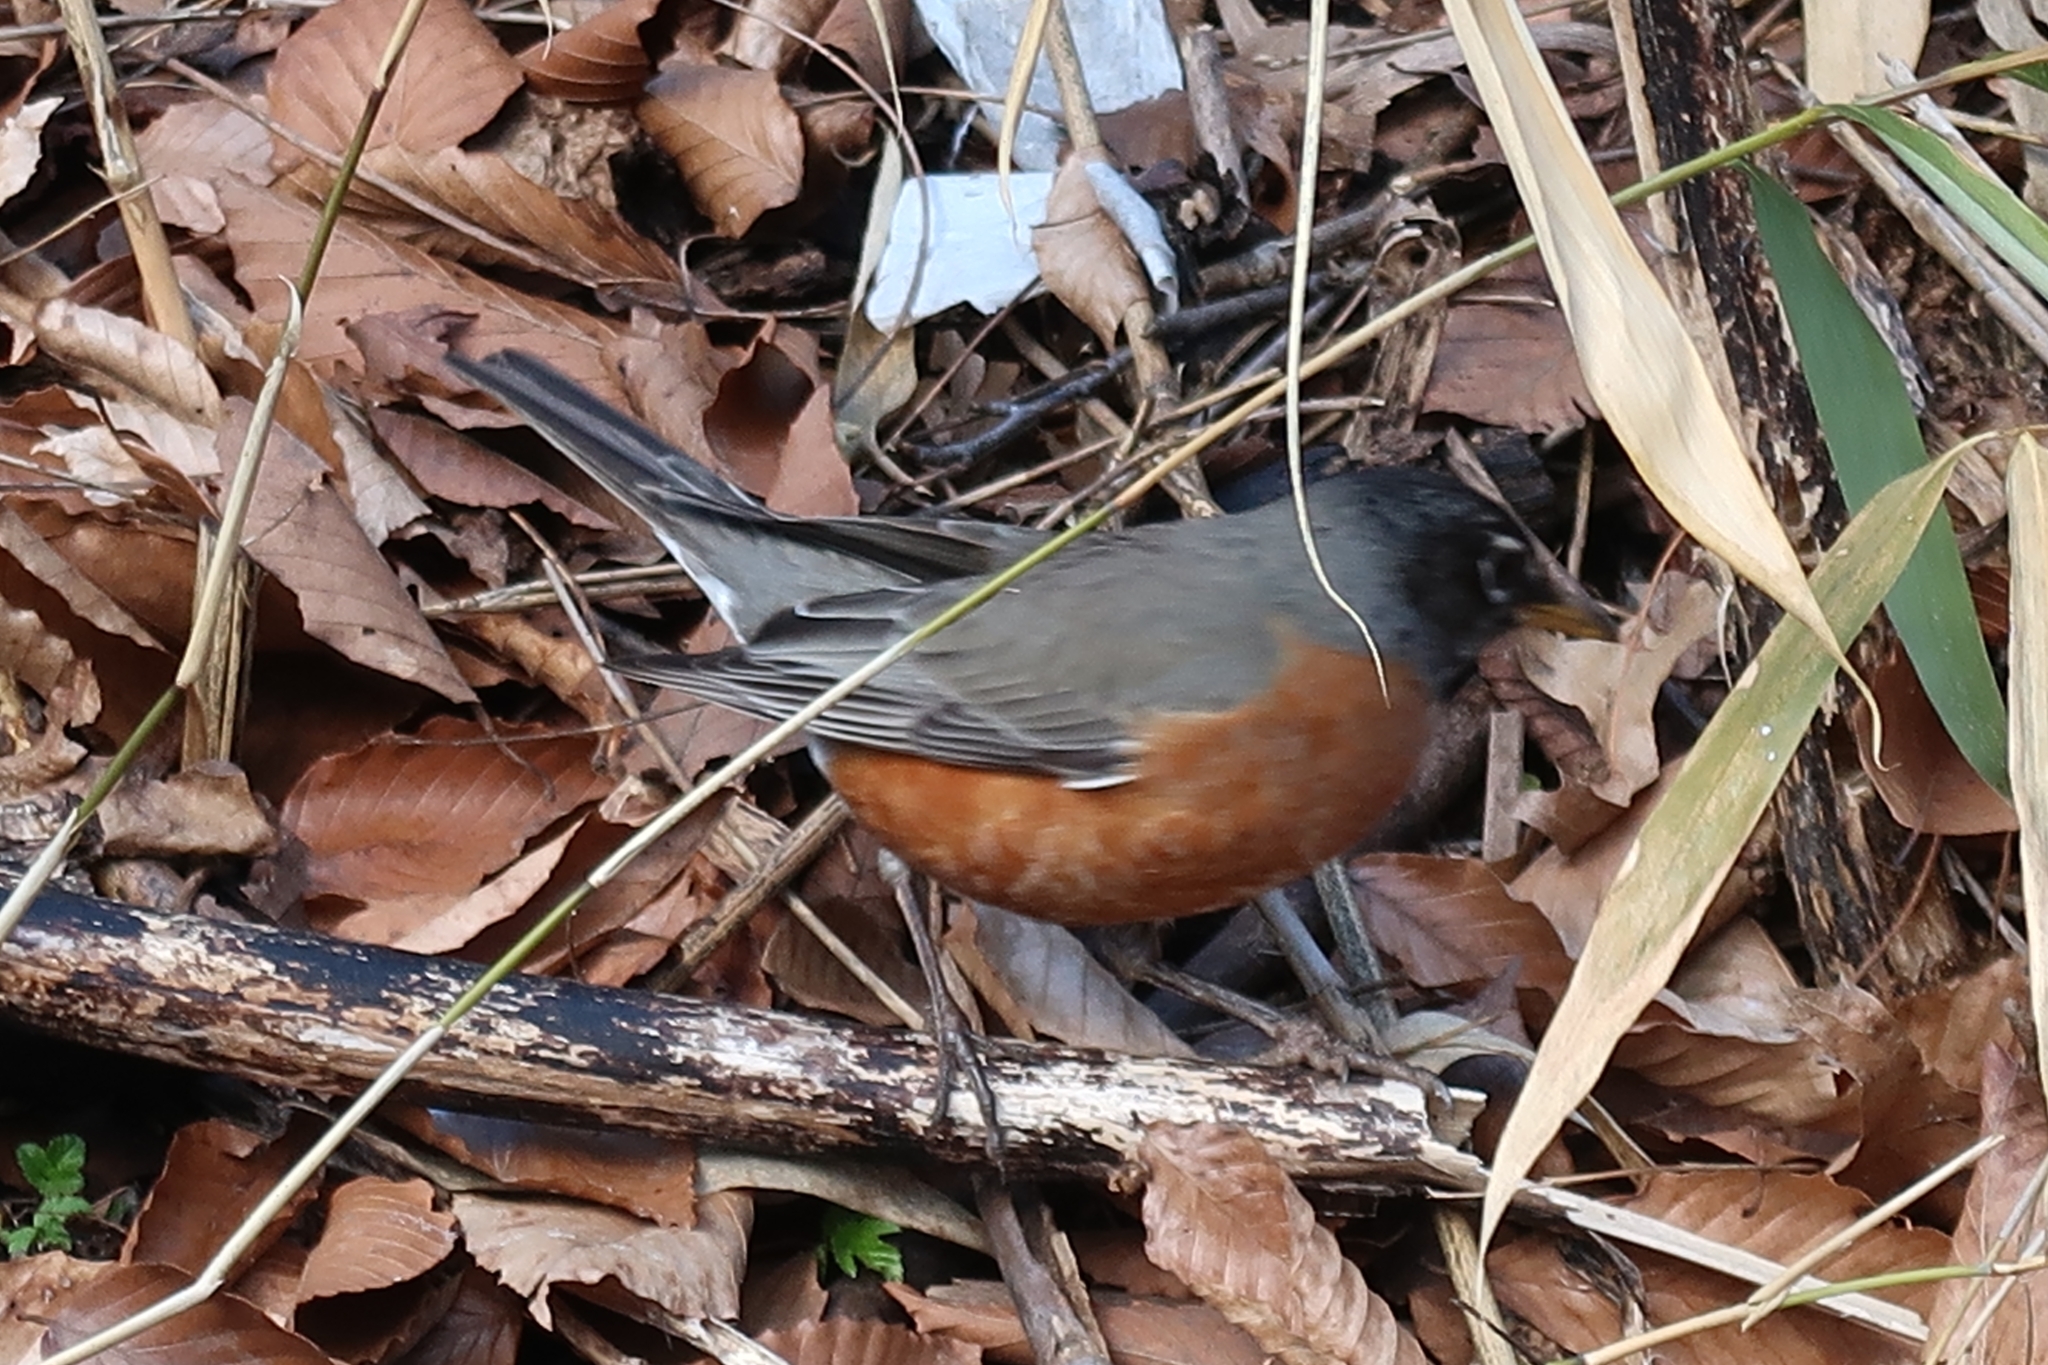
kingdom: Animalia
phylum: Chordata
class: Aves
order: Passeriformes
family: Turdidae
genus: Turdus
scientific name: Turdus migratorius
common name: American robin
